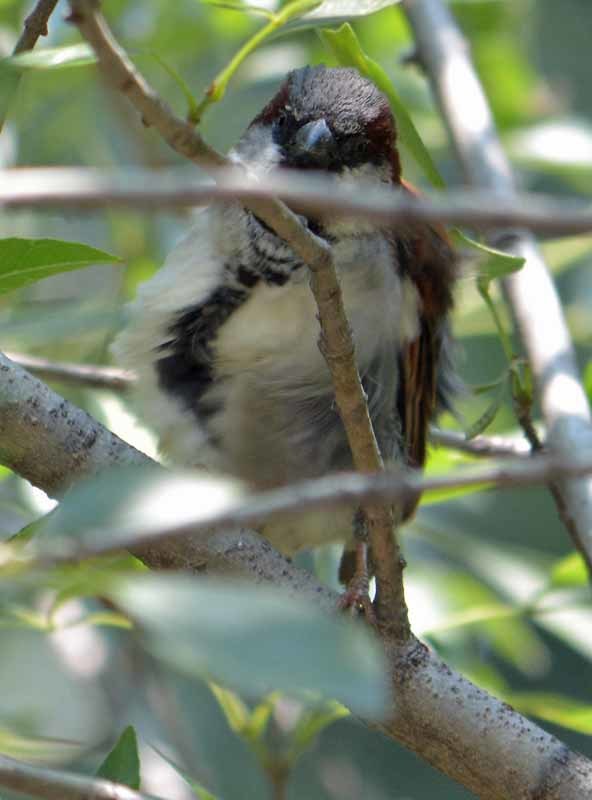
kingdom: Animalia
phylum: Chordata
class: Aves
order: Passeriformes
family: Passeridae
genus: Passer
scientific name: Passer domesticus
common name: House sparrow
